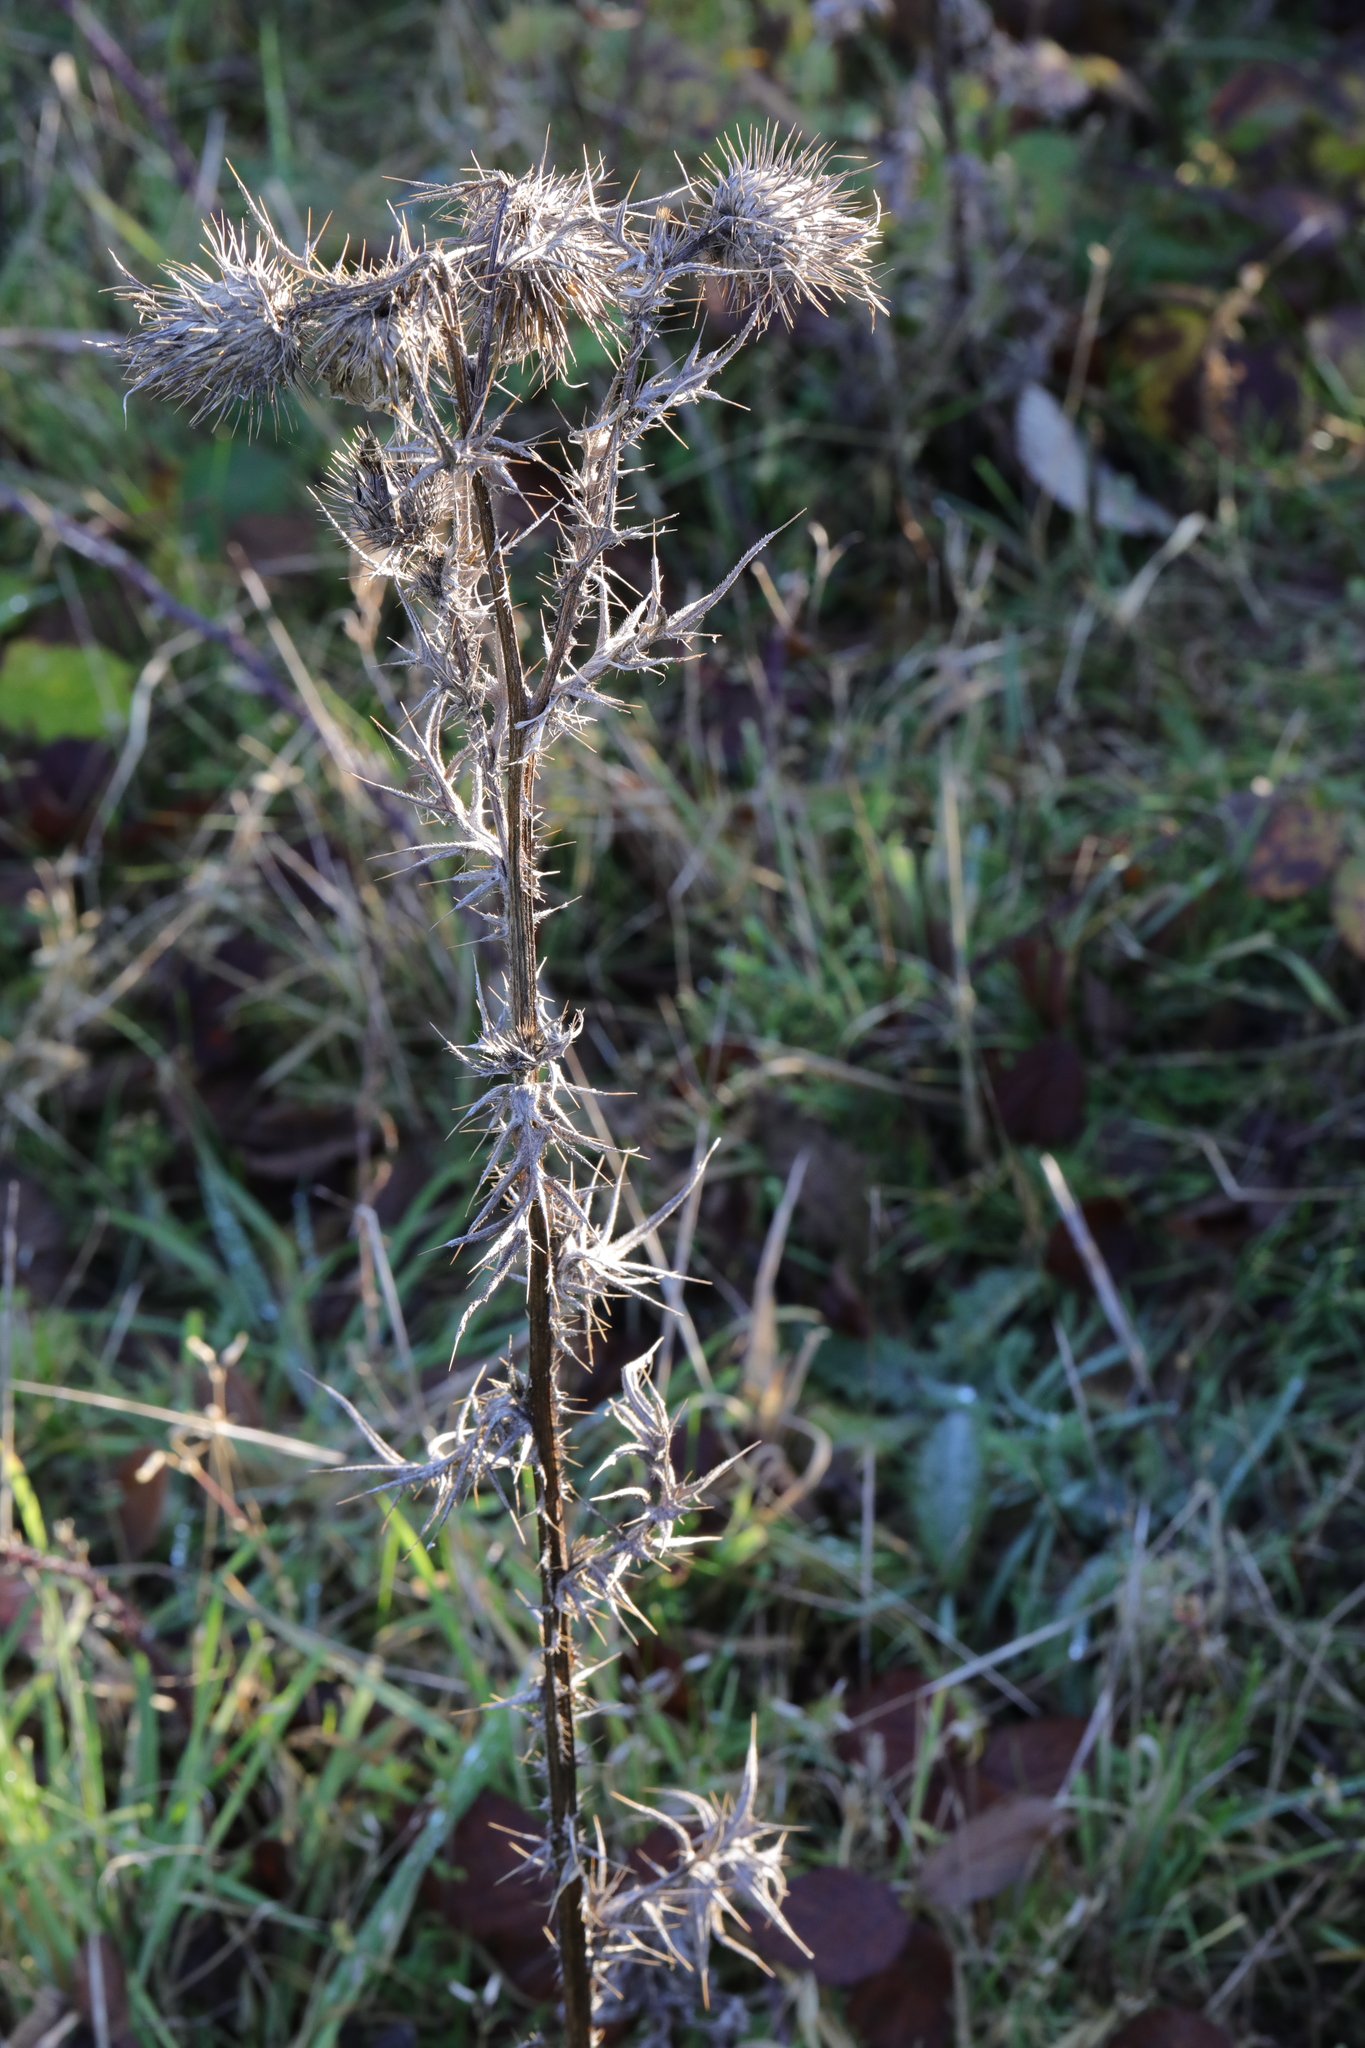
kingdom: Plantae
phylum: Tracheophyta
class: Magnoliopsida
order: Asterales
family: Asteraceae
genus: Cirsium
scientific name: Cirsium vulgare
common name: Bull thistle
